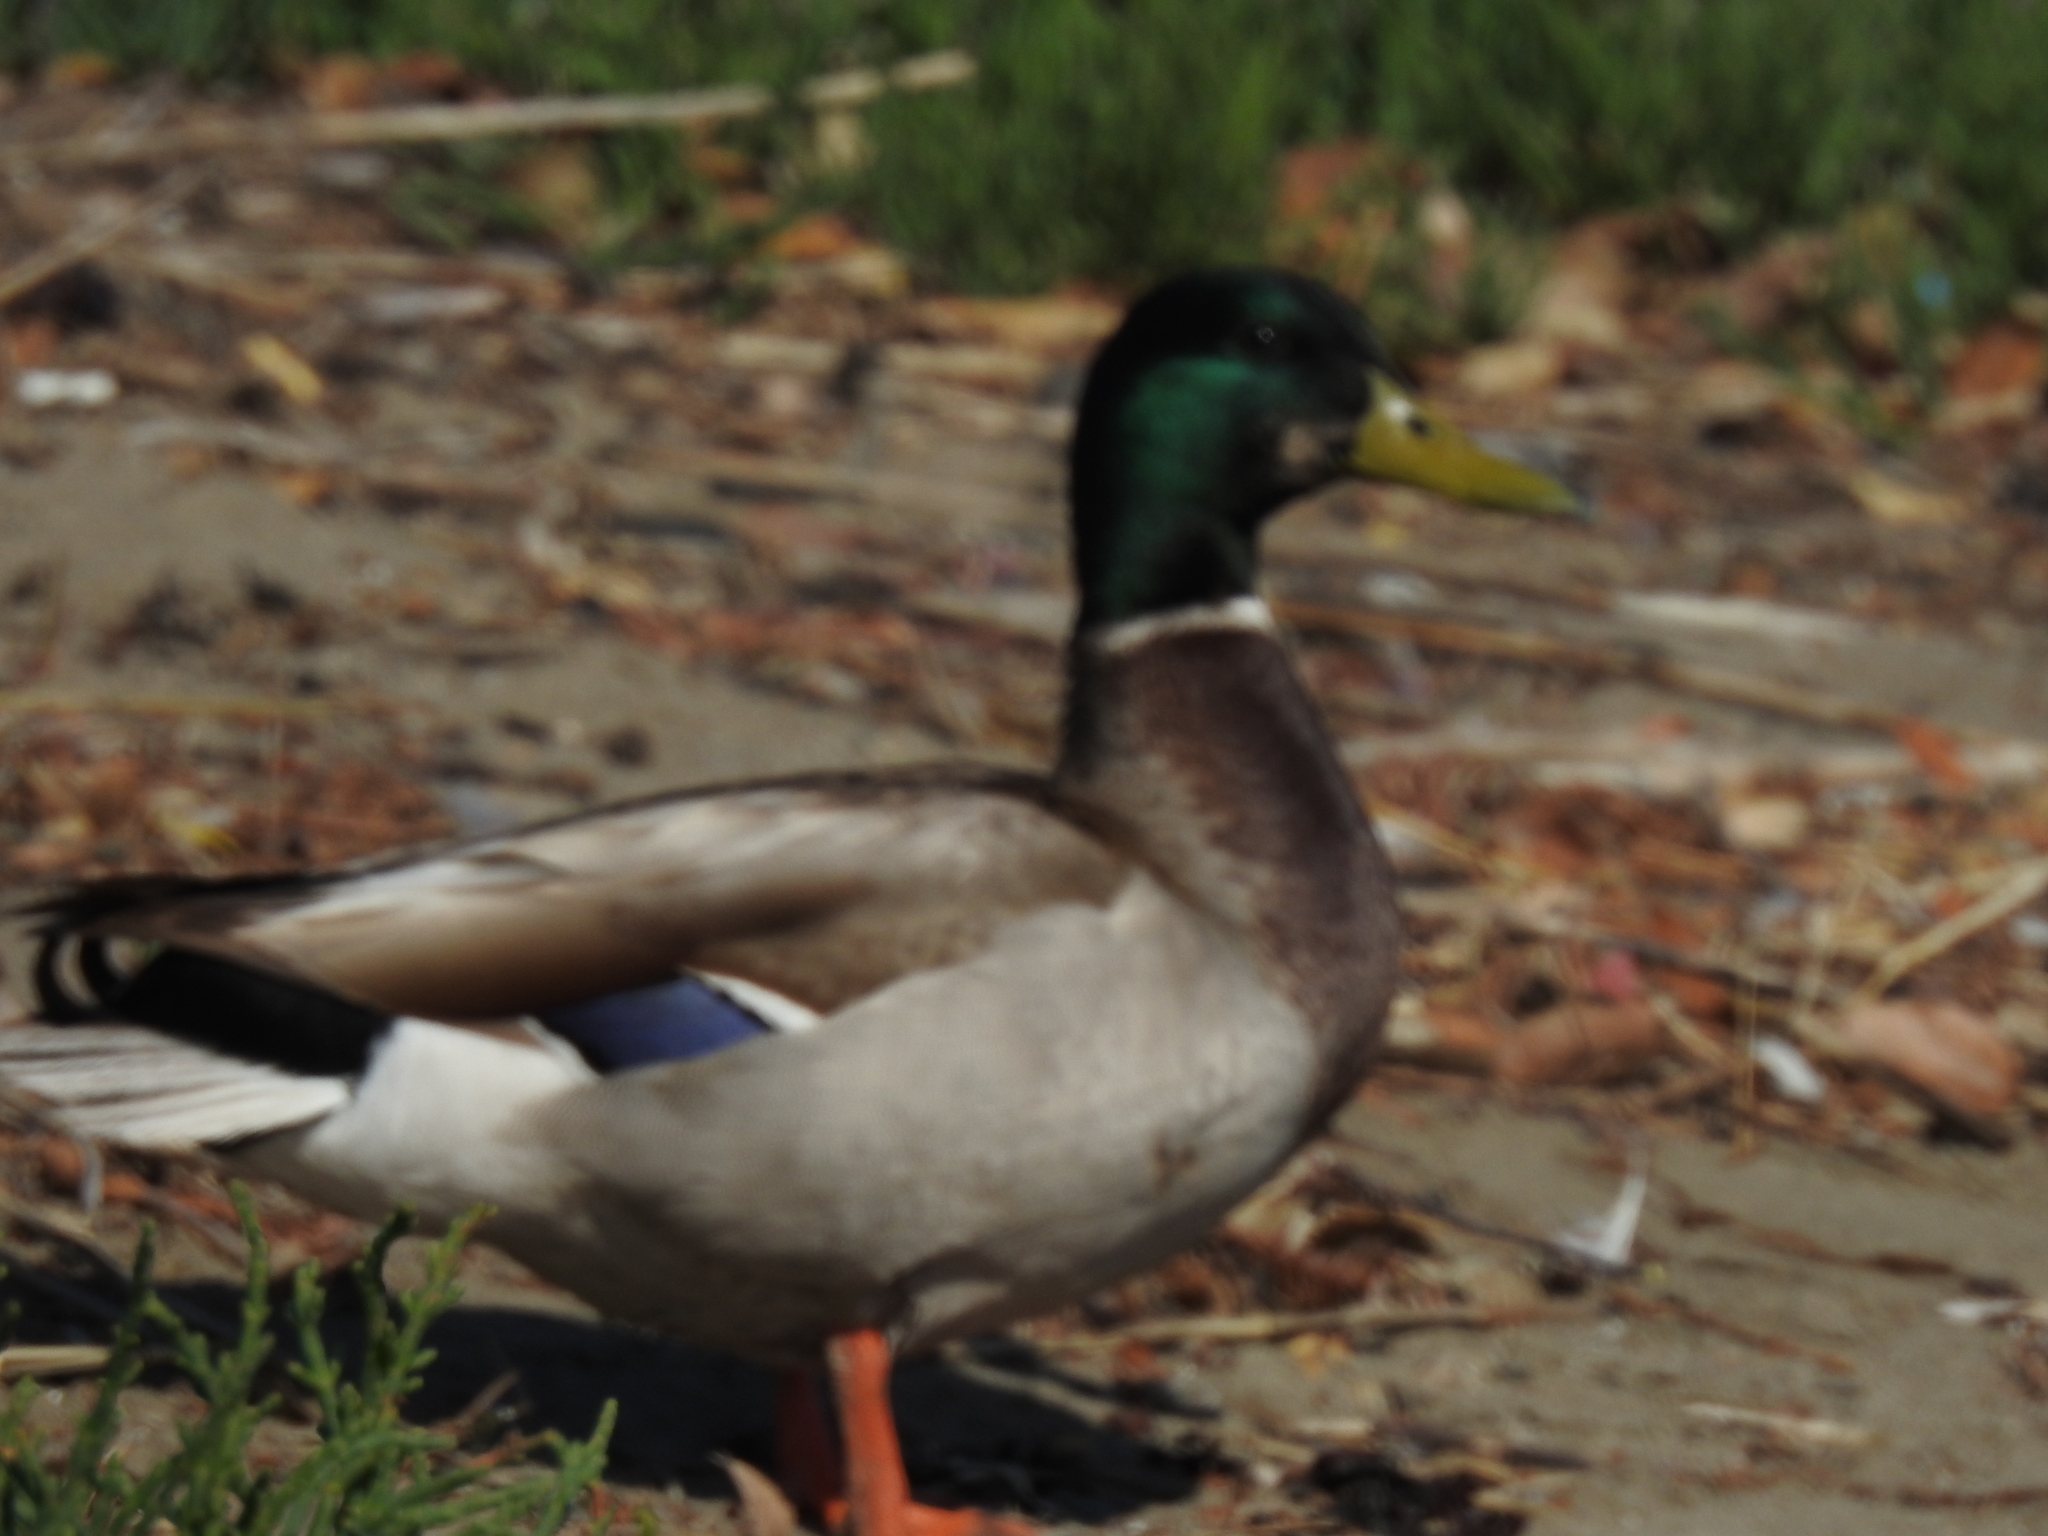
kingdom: Animalia
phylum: Chordata
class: Aves
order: Anseriformes
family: Anatidae
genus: Anas
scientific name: Anas platyrhynchos
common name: Mallard
